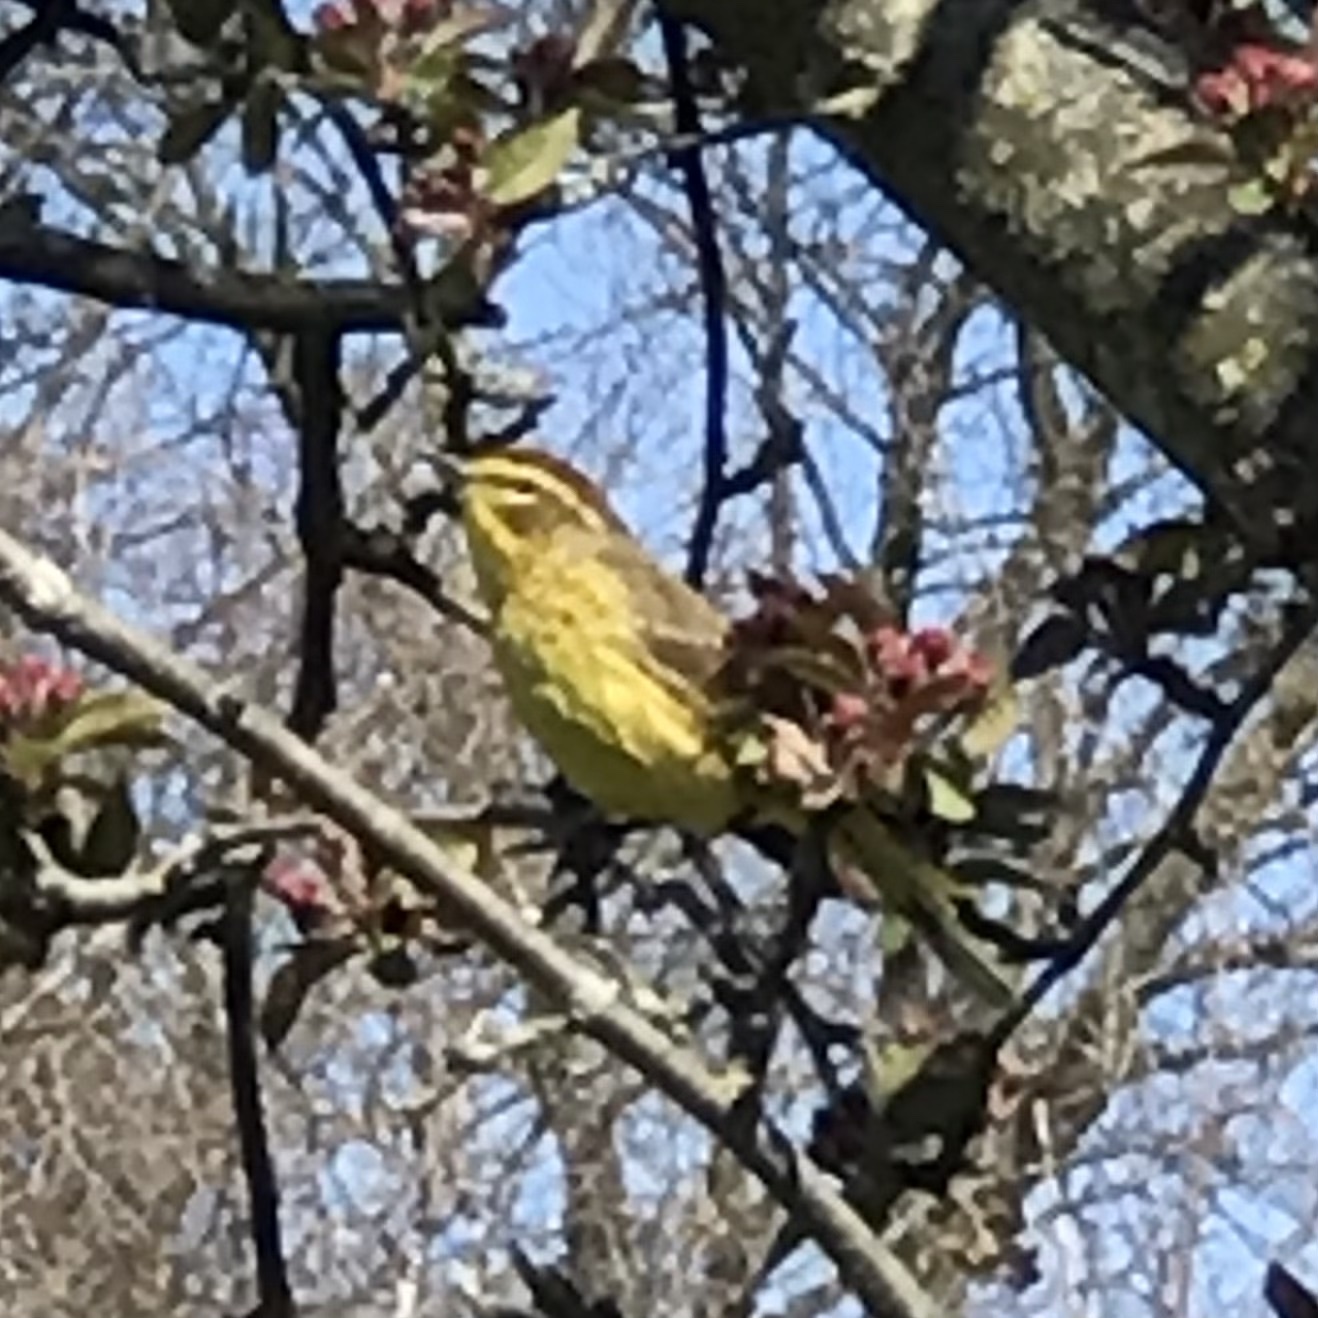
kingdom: Animalia
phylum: Chordata
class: Aves
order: Passeriformes
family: Parulidae
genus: Setophaga
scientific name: Setophaga palmarum
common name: Palm warbler
